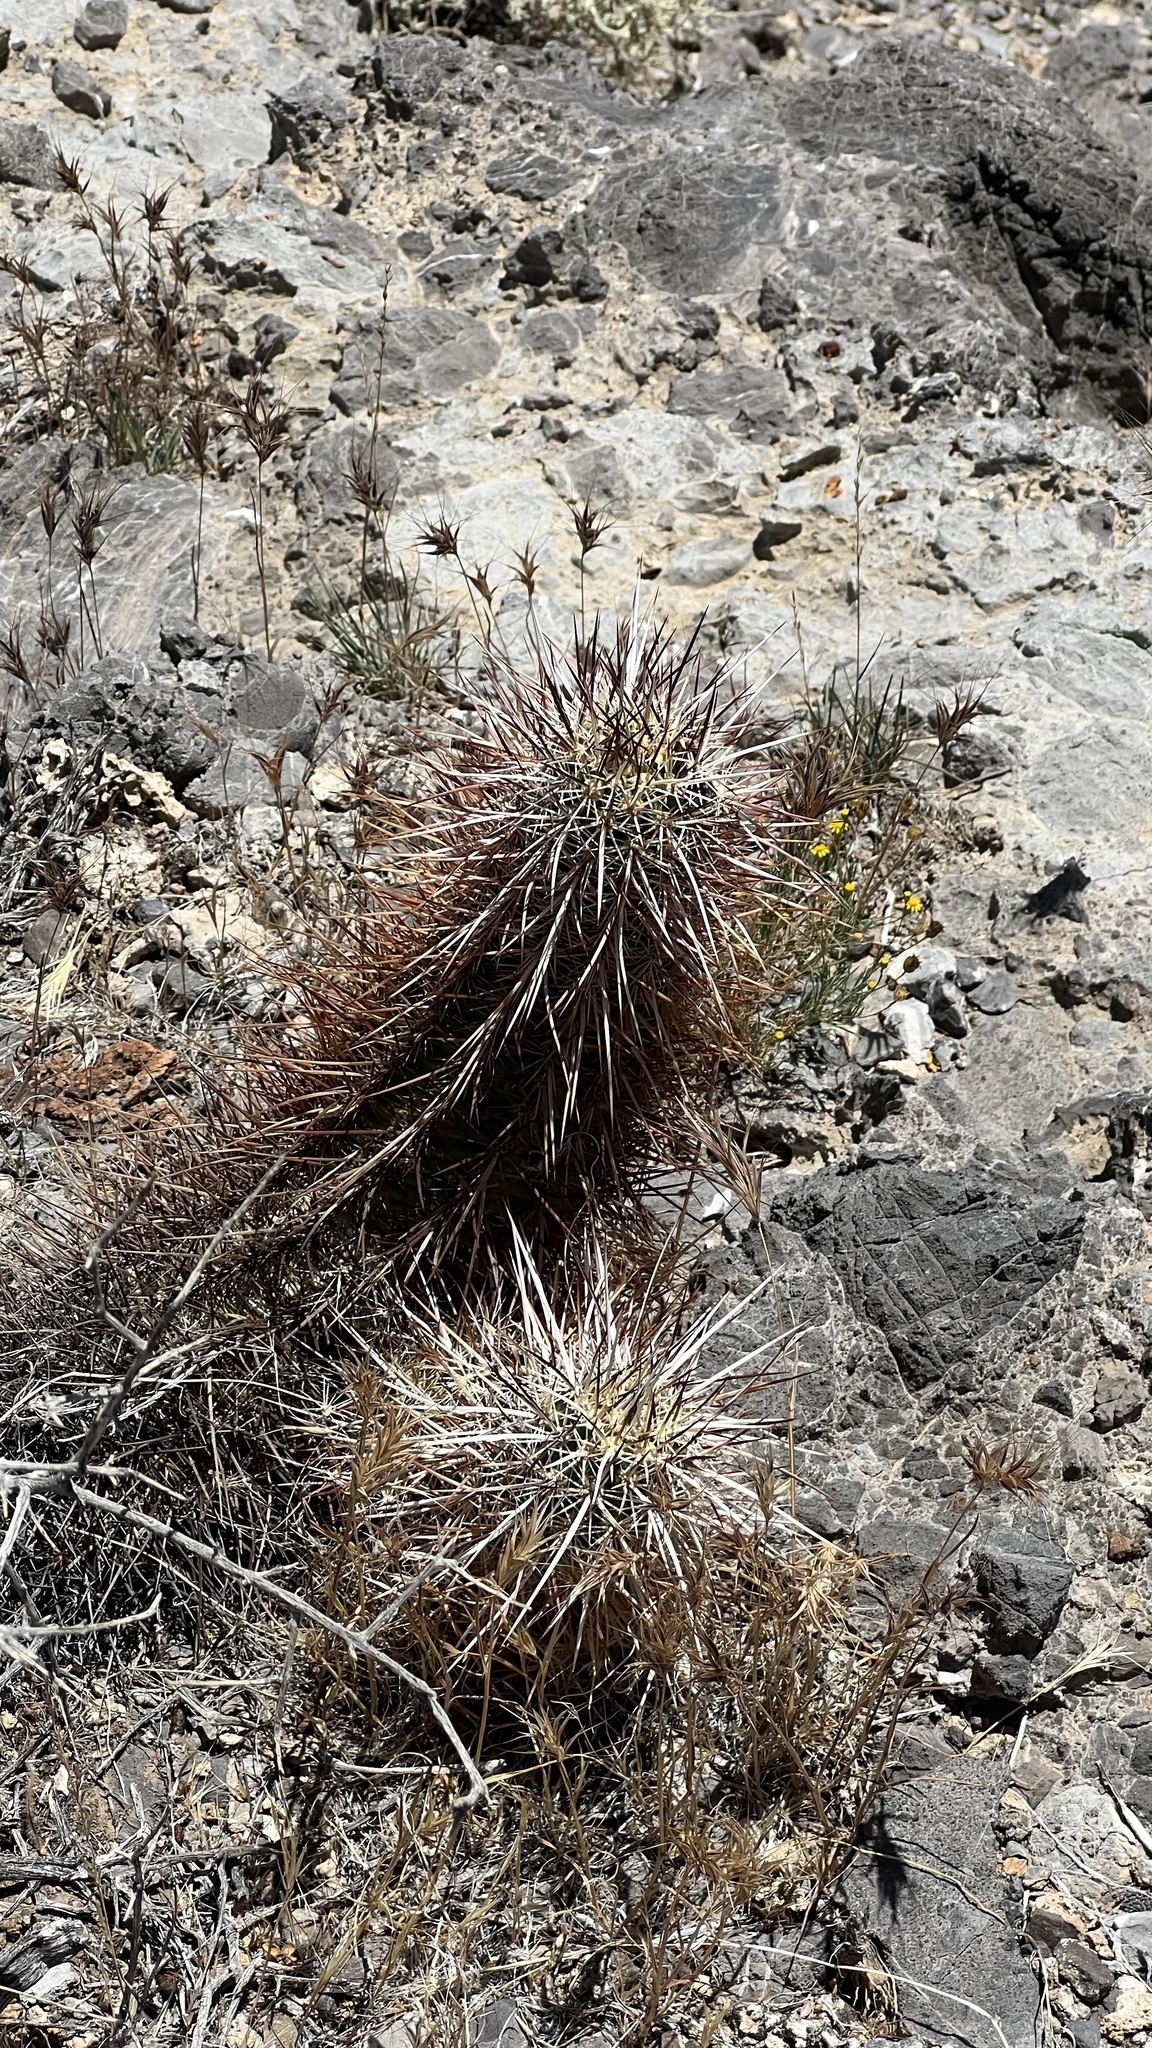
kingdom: Plantae
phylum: Tracheophyta
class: Magnoliopsida
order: Caryophyllales
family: Cactaceae
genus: Echinocereus
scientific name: Echinocereus engelmannii
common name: Engelmann's hedgehog cactus
